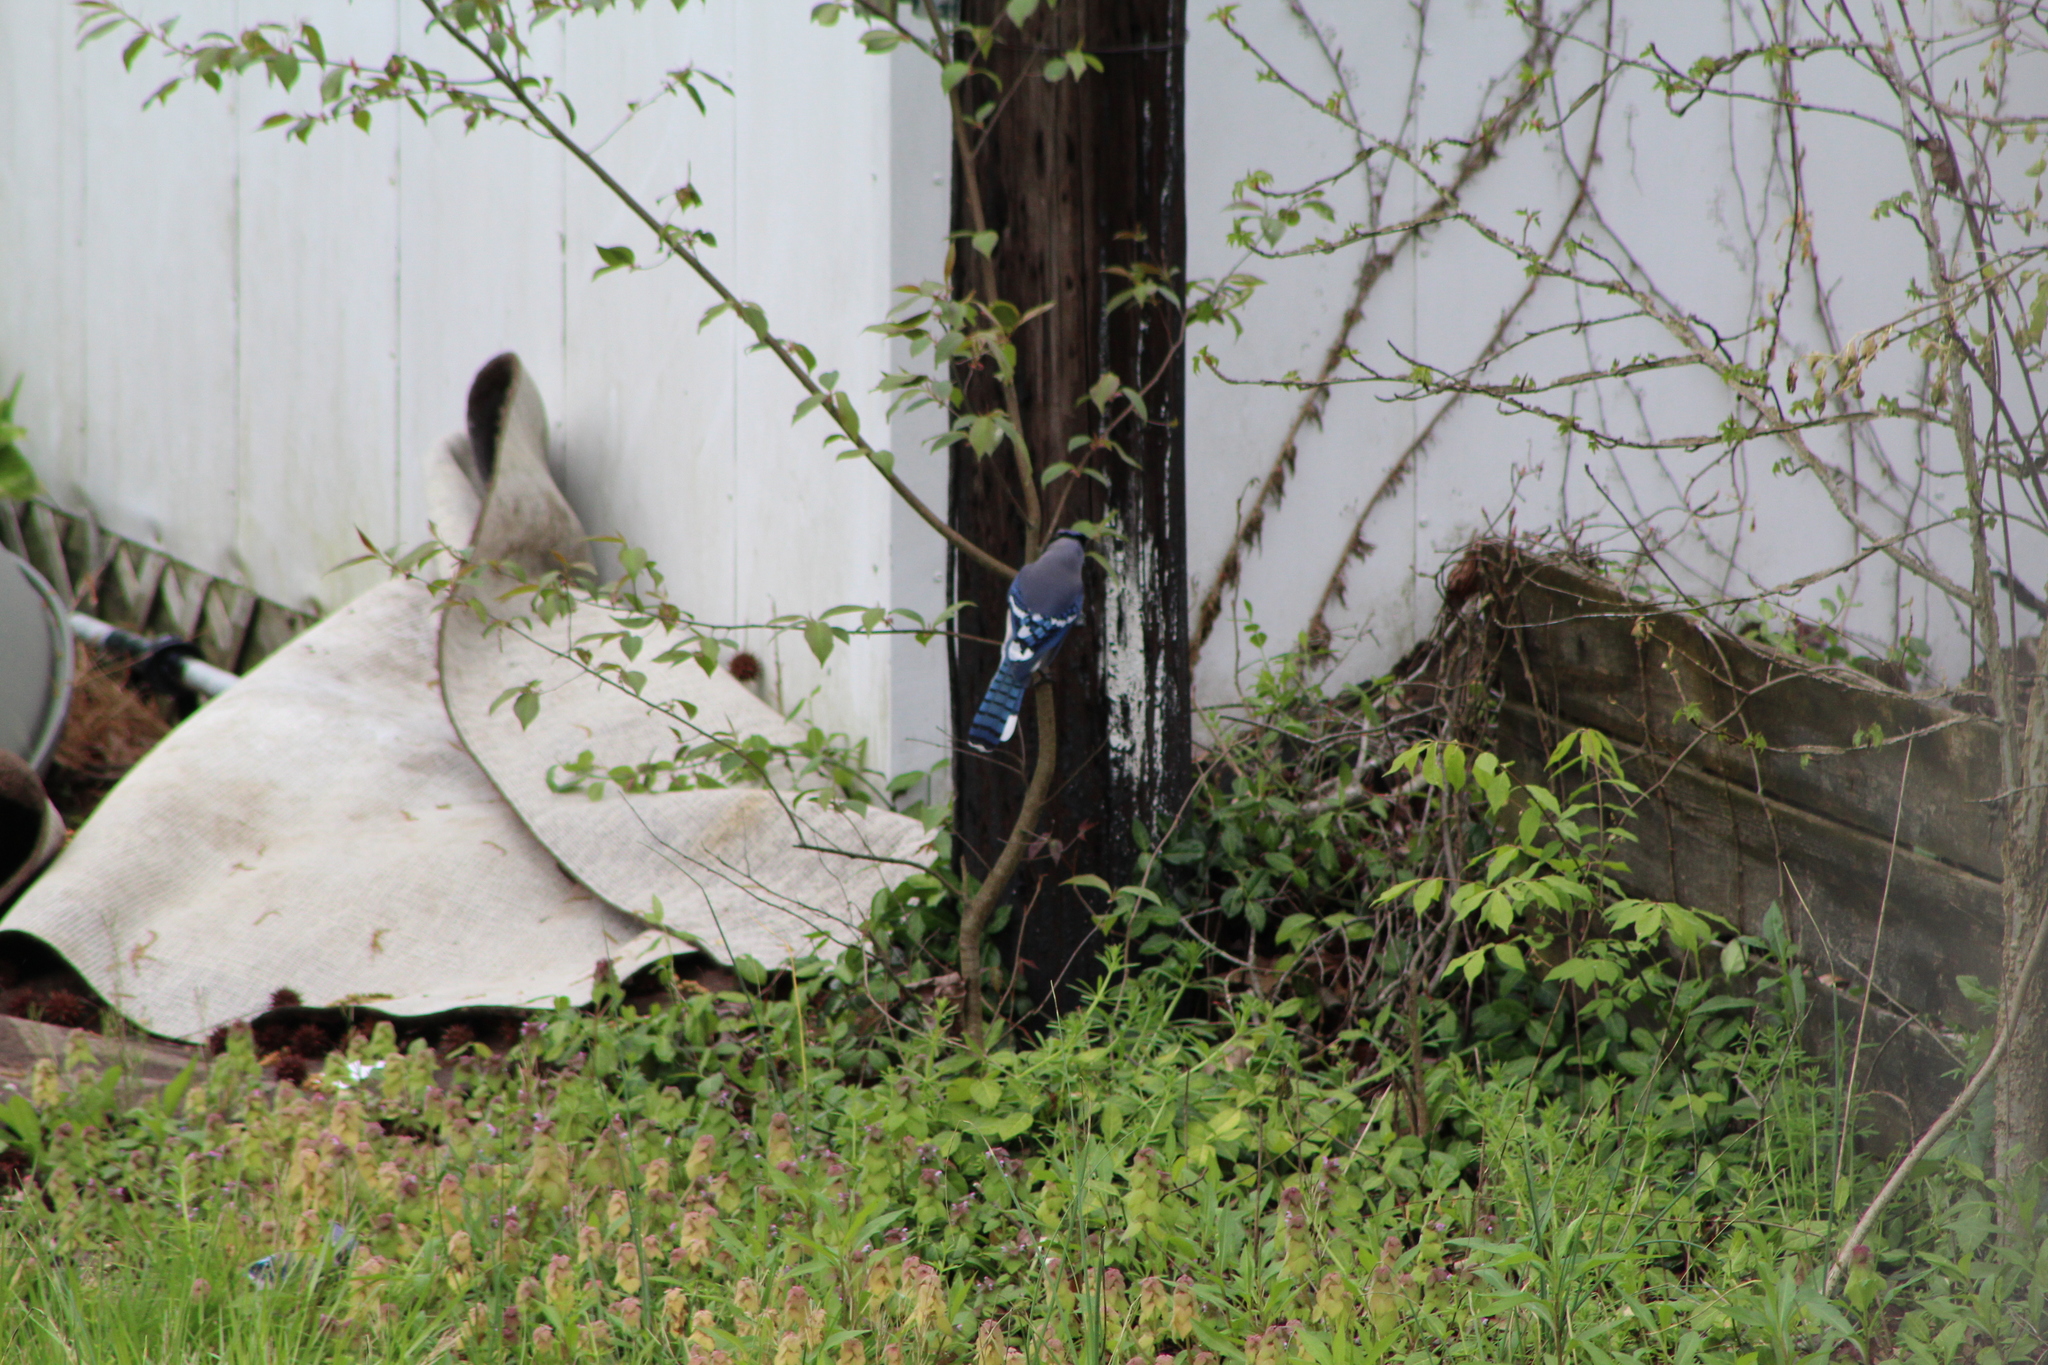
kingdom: Animalia
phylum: Chordata
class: Aves
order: Passeriformes
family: Corvidae
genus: Cyanocitta
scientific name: Cyanocitta cristata
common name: Blue jay
